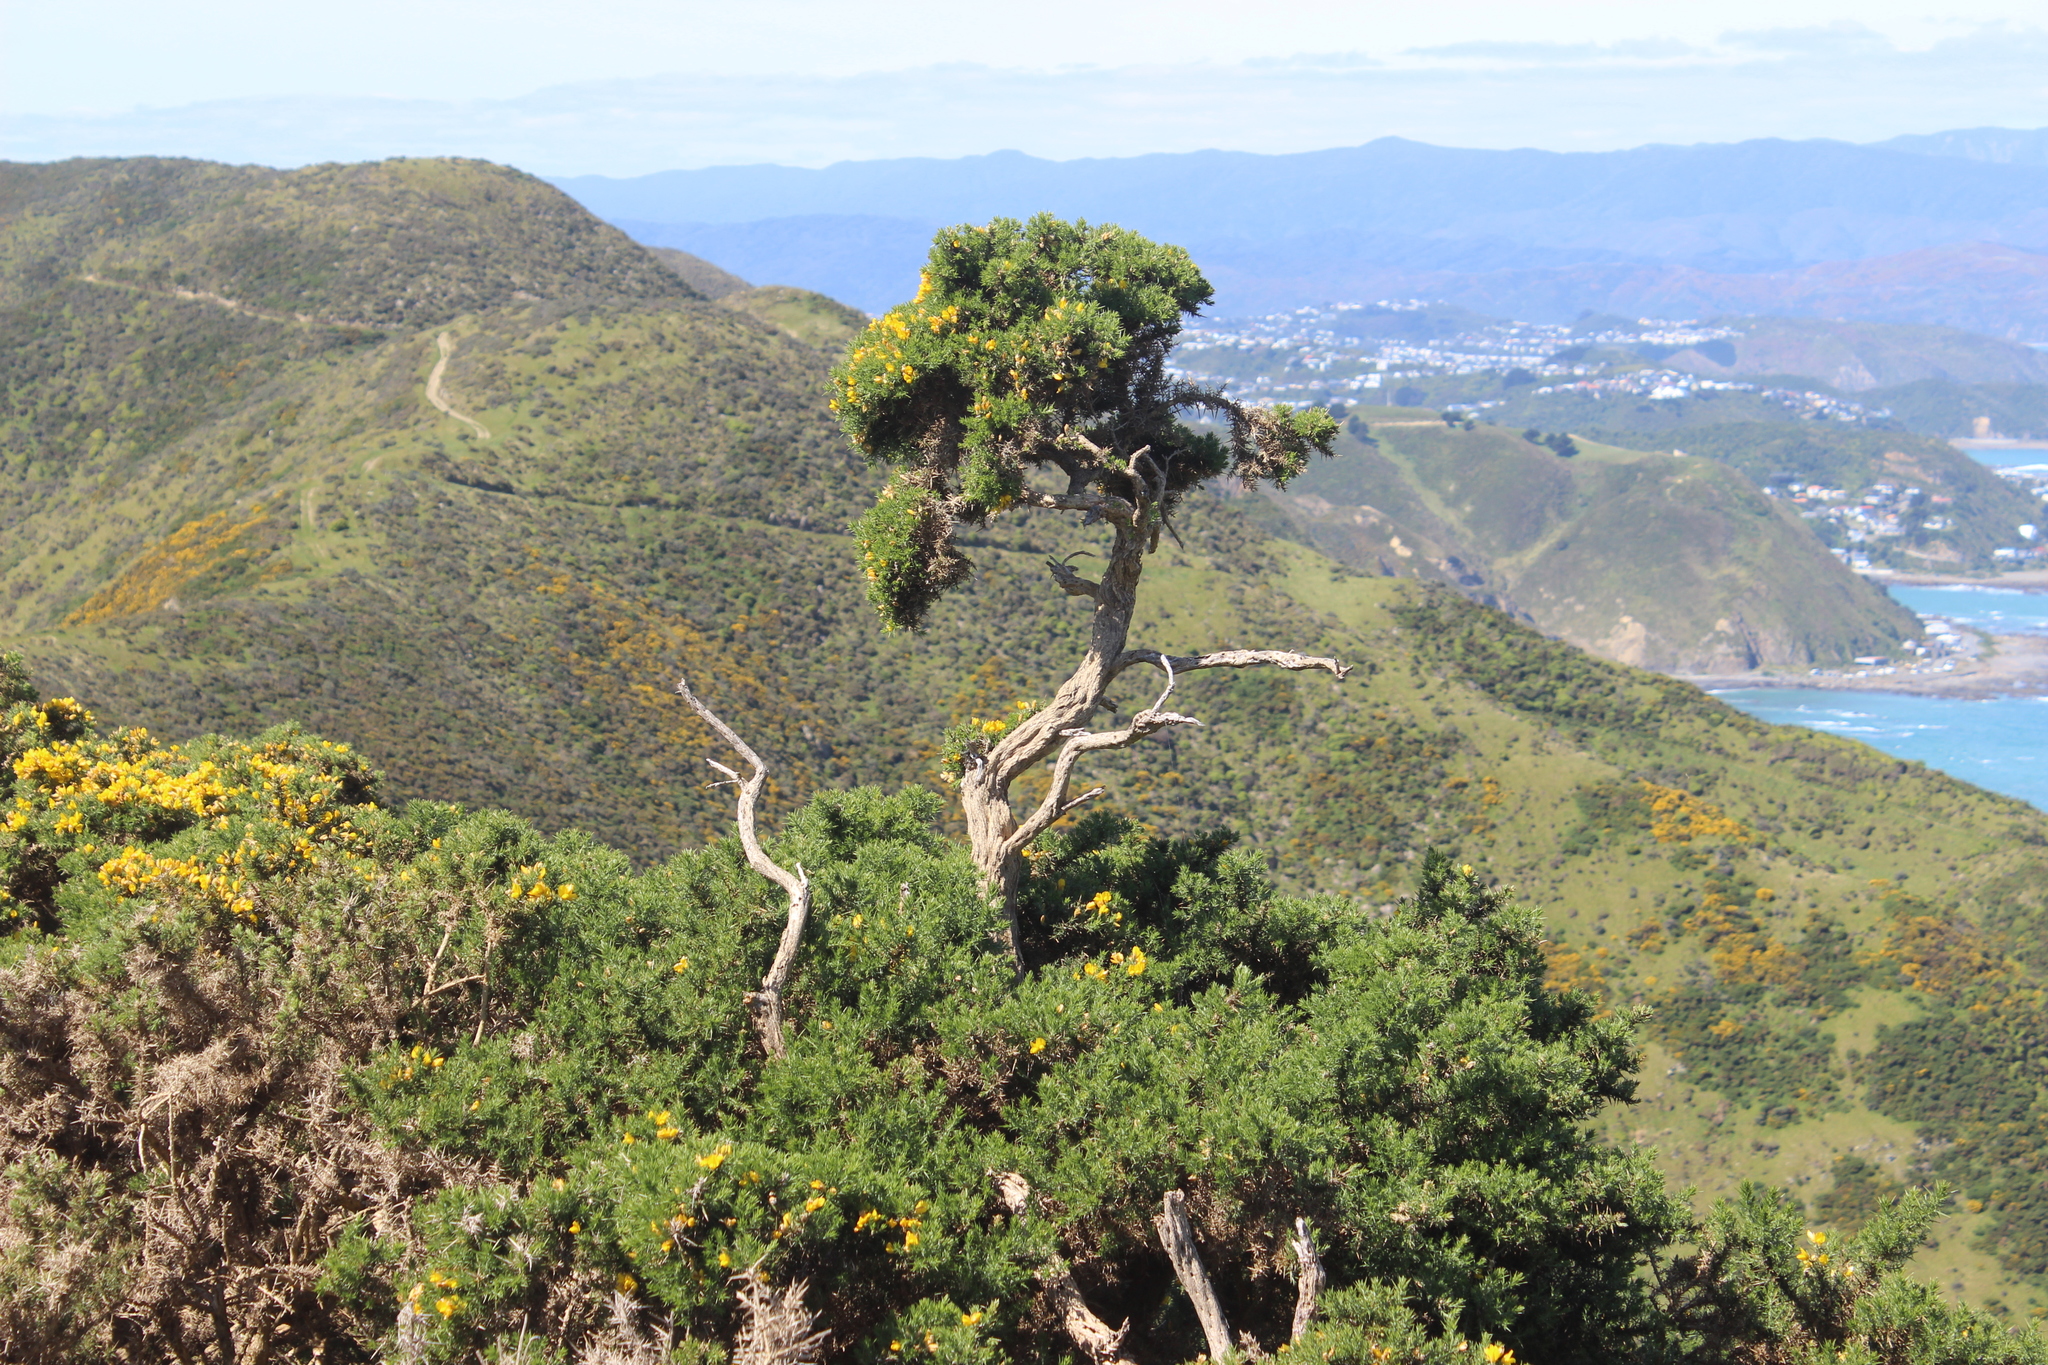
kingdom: Plantae
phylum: Tracheophyta
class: Magnoliopsida
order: Fabales
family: Fabaceae
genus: Ulex
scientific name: Ulex europaeus
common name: Common gorse
